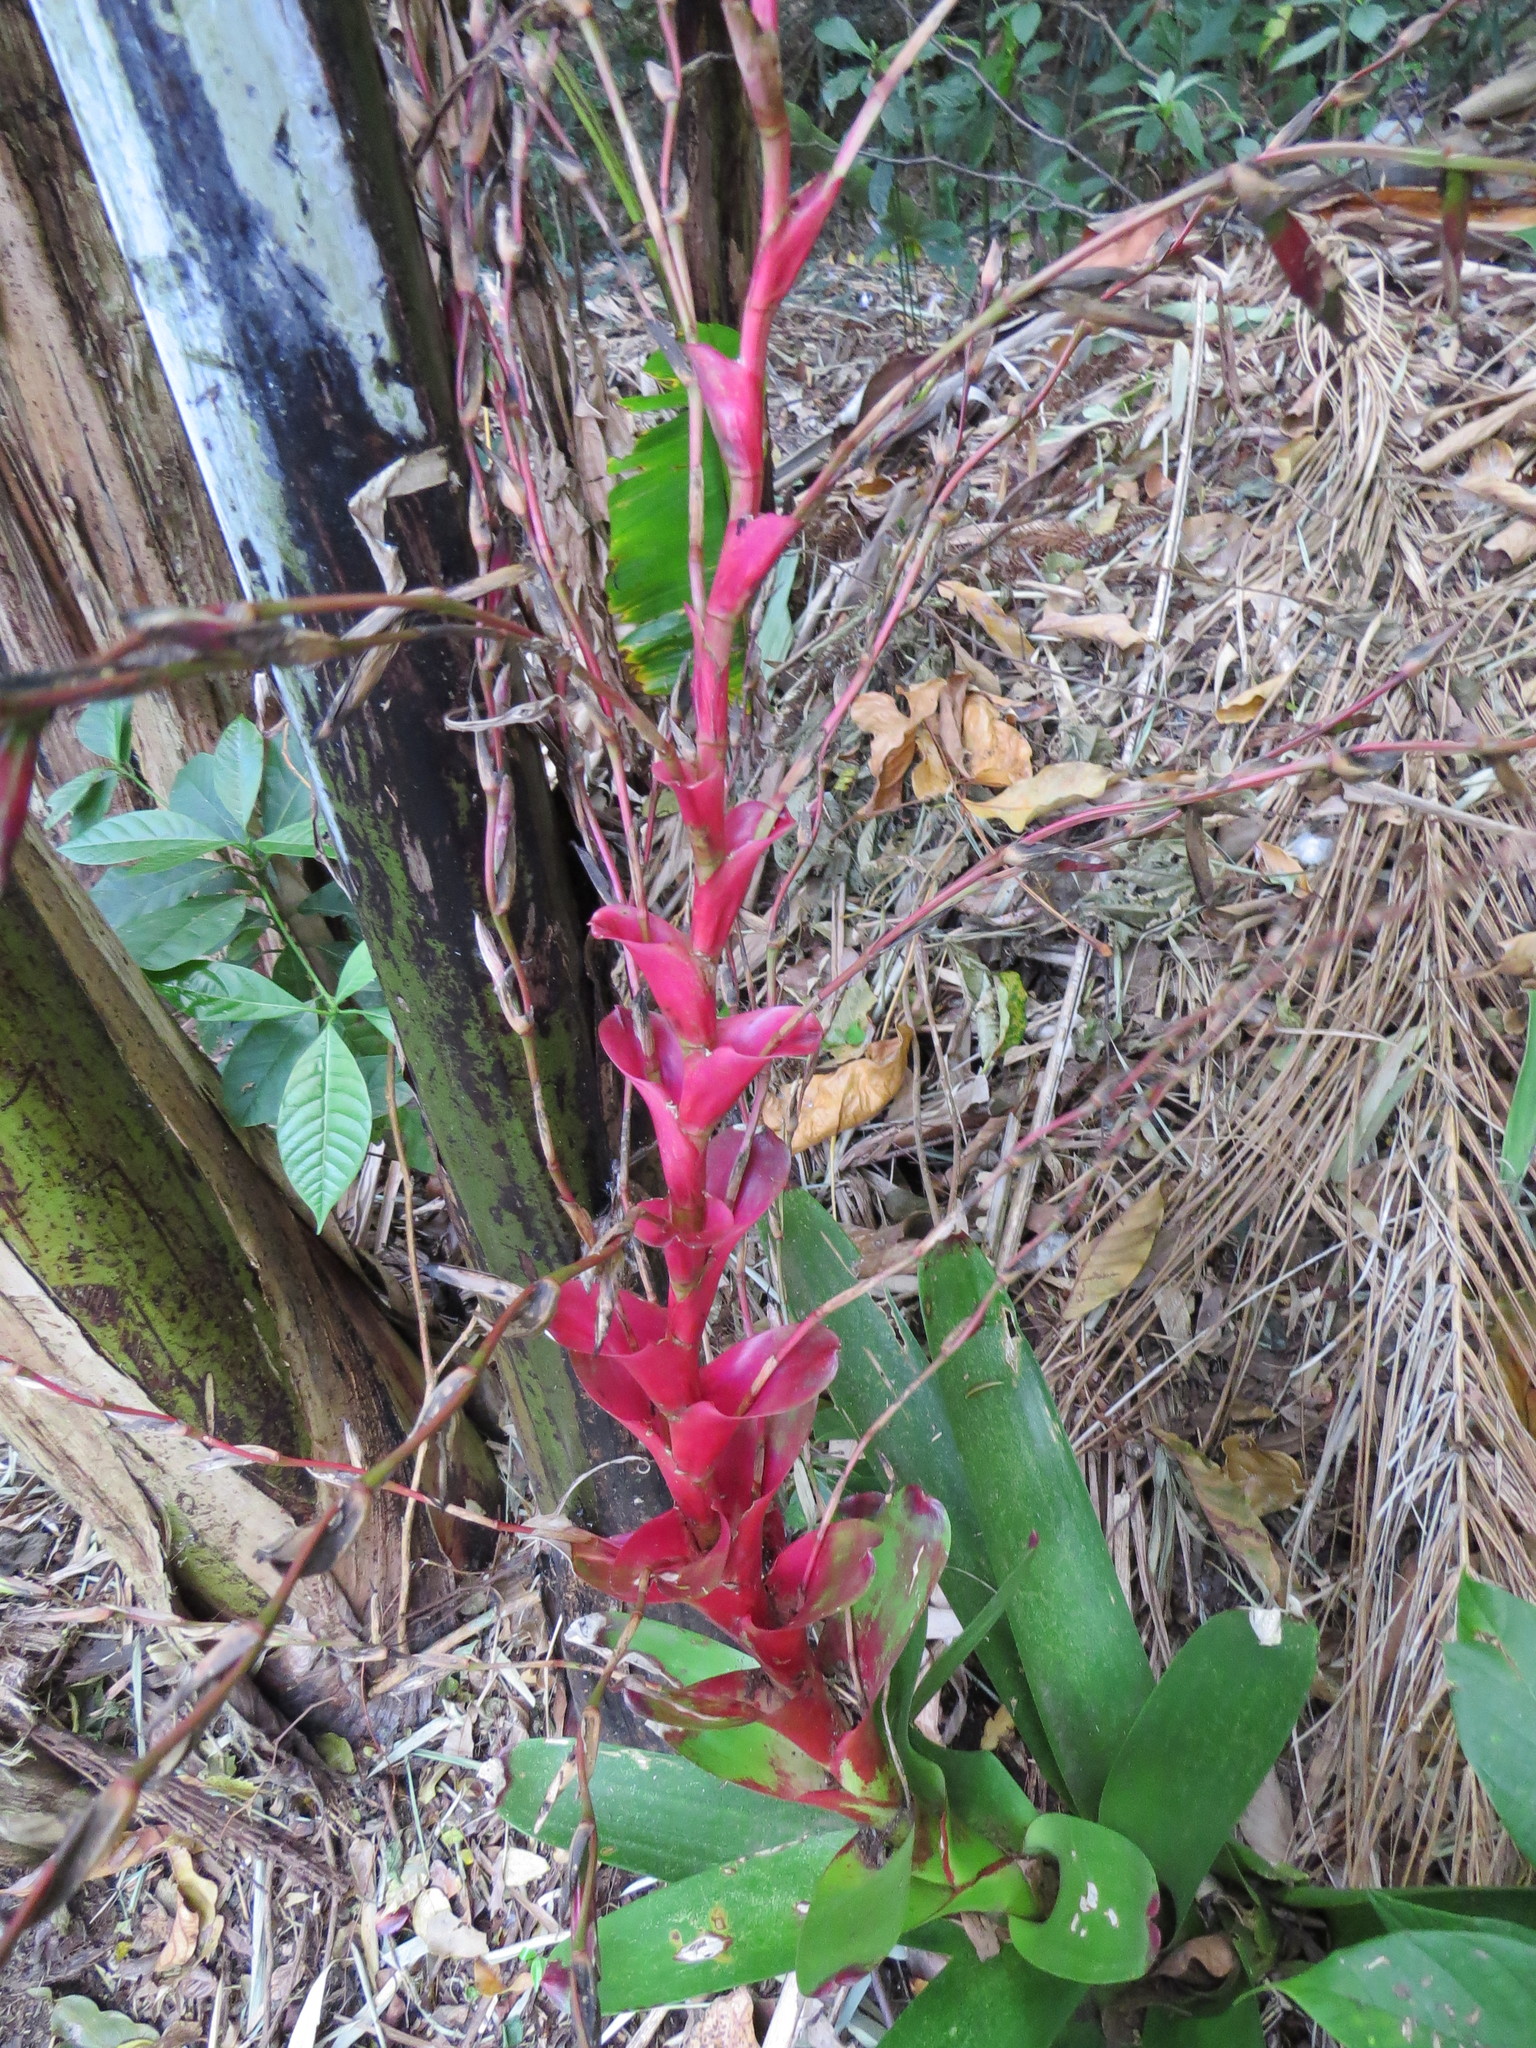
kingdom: Plantae
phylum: Tracheophyta
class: Liliopsida
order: Poales
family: Bromeliaceae
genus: Vriesea
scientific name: Vriesea philippocoburgi
